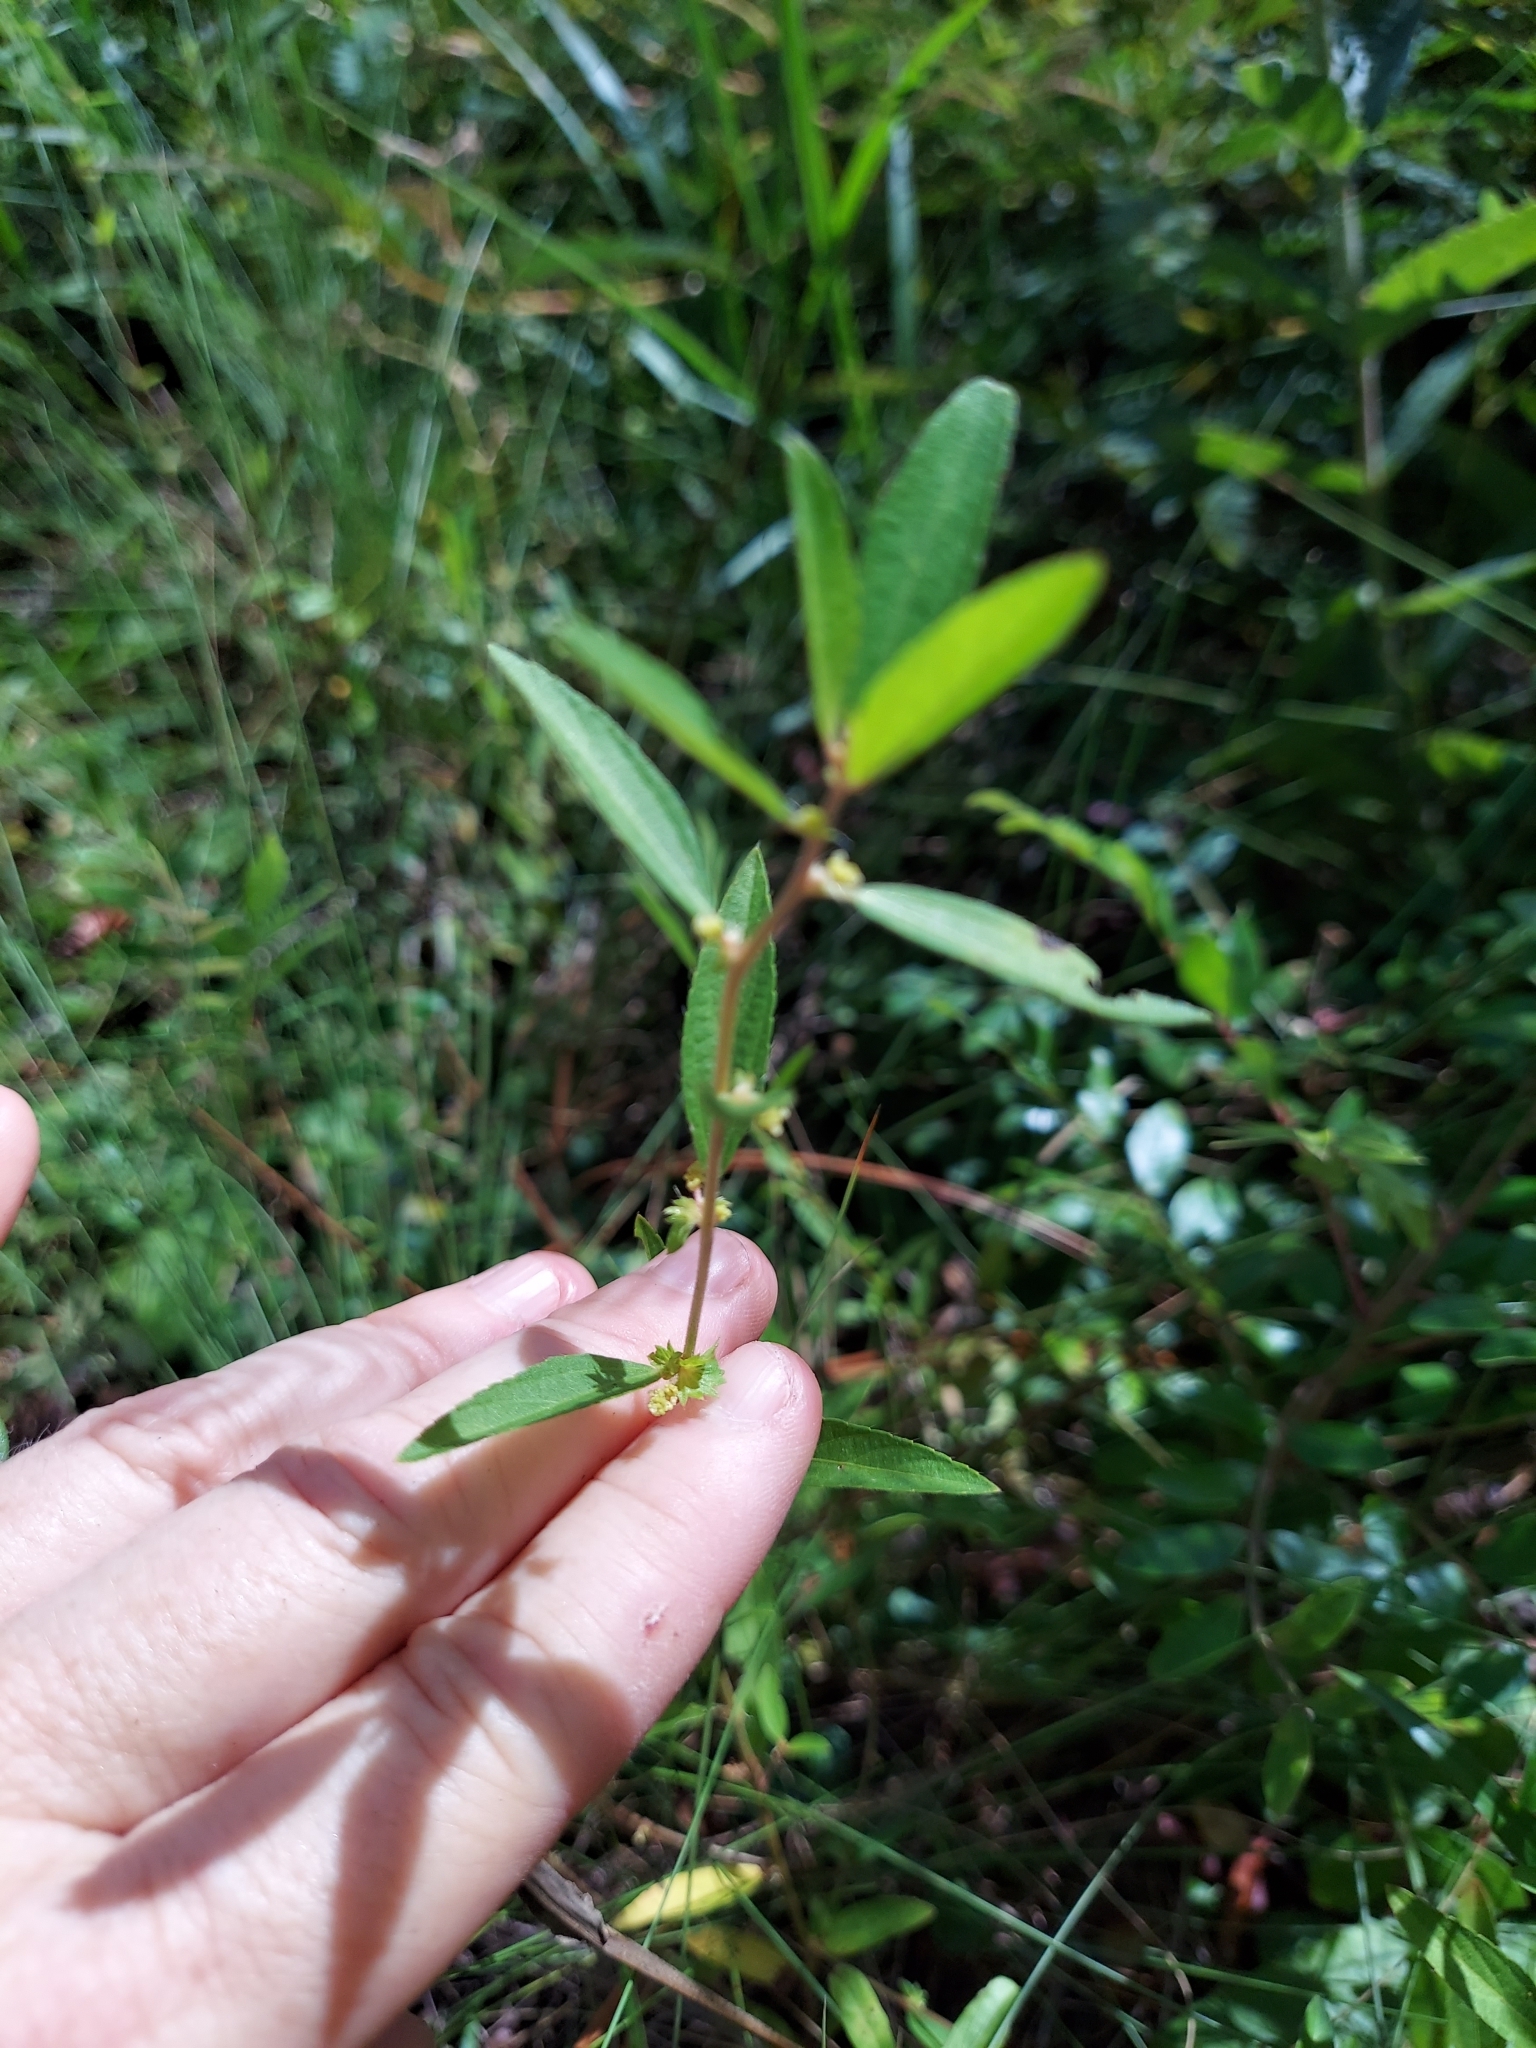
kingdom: Plantae
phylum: Tracheophyta
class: Magnoliopsida
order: Malpighiales
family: Euphorbiaceae
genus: Acalypha
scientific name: Acalypha gracilens
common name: Slender three-seeded mercury
